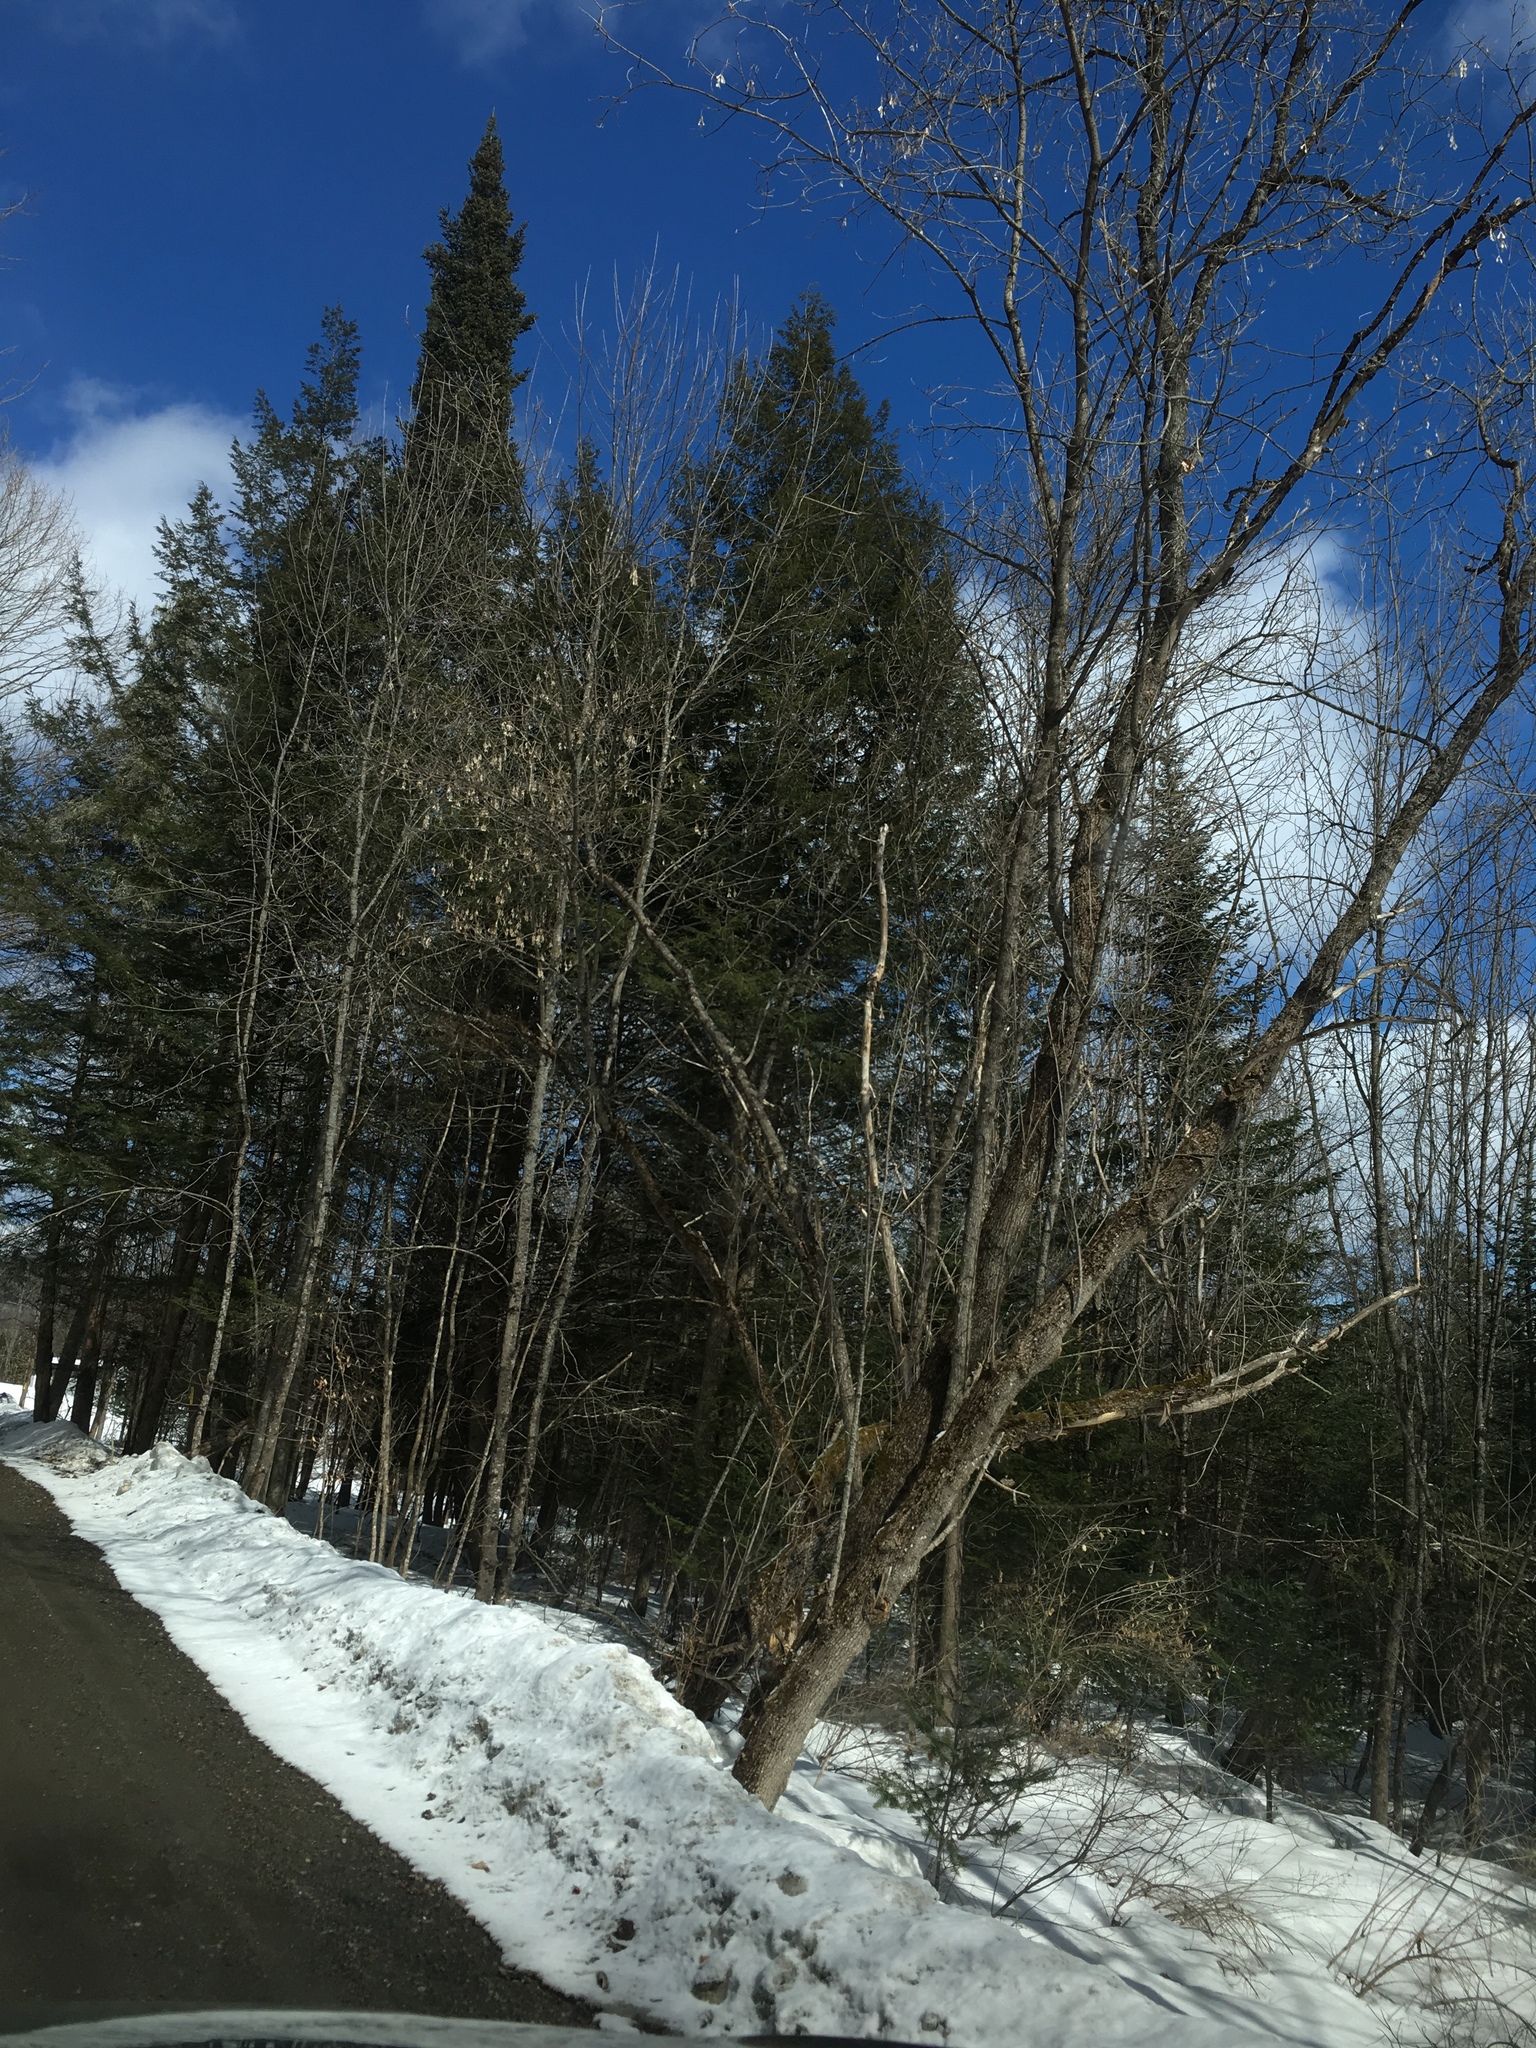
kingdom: Plantae
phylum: Tracheophyta
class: Magnoliopsida
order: Sapindales
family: Sapindaceae
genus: Acer
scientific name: Acer negundo
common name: Ashleaf maple
